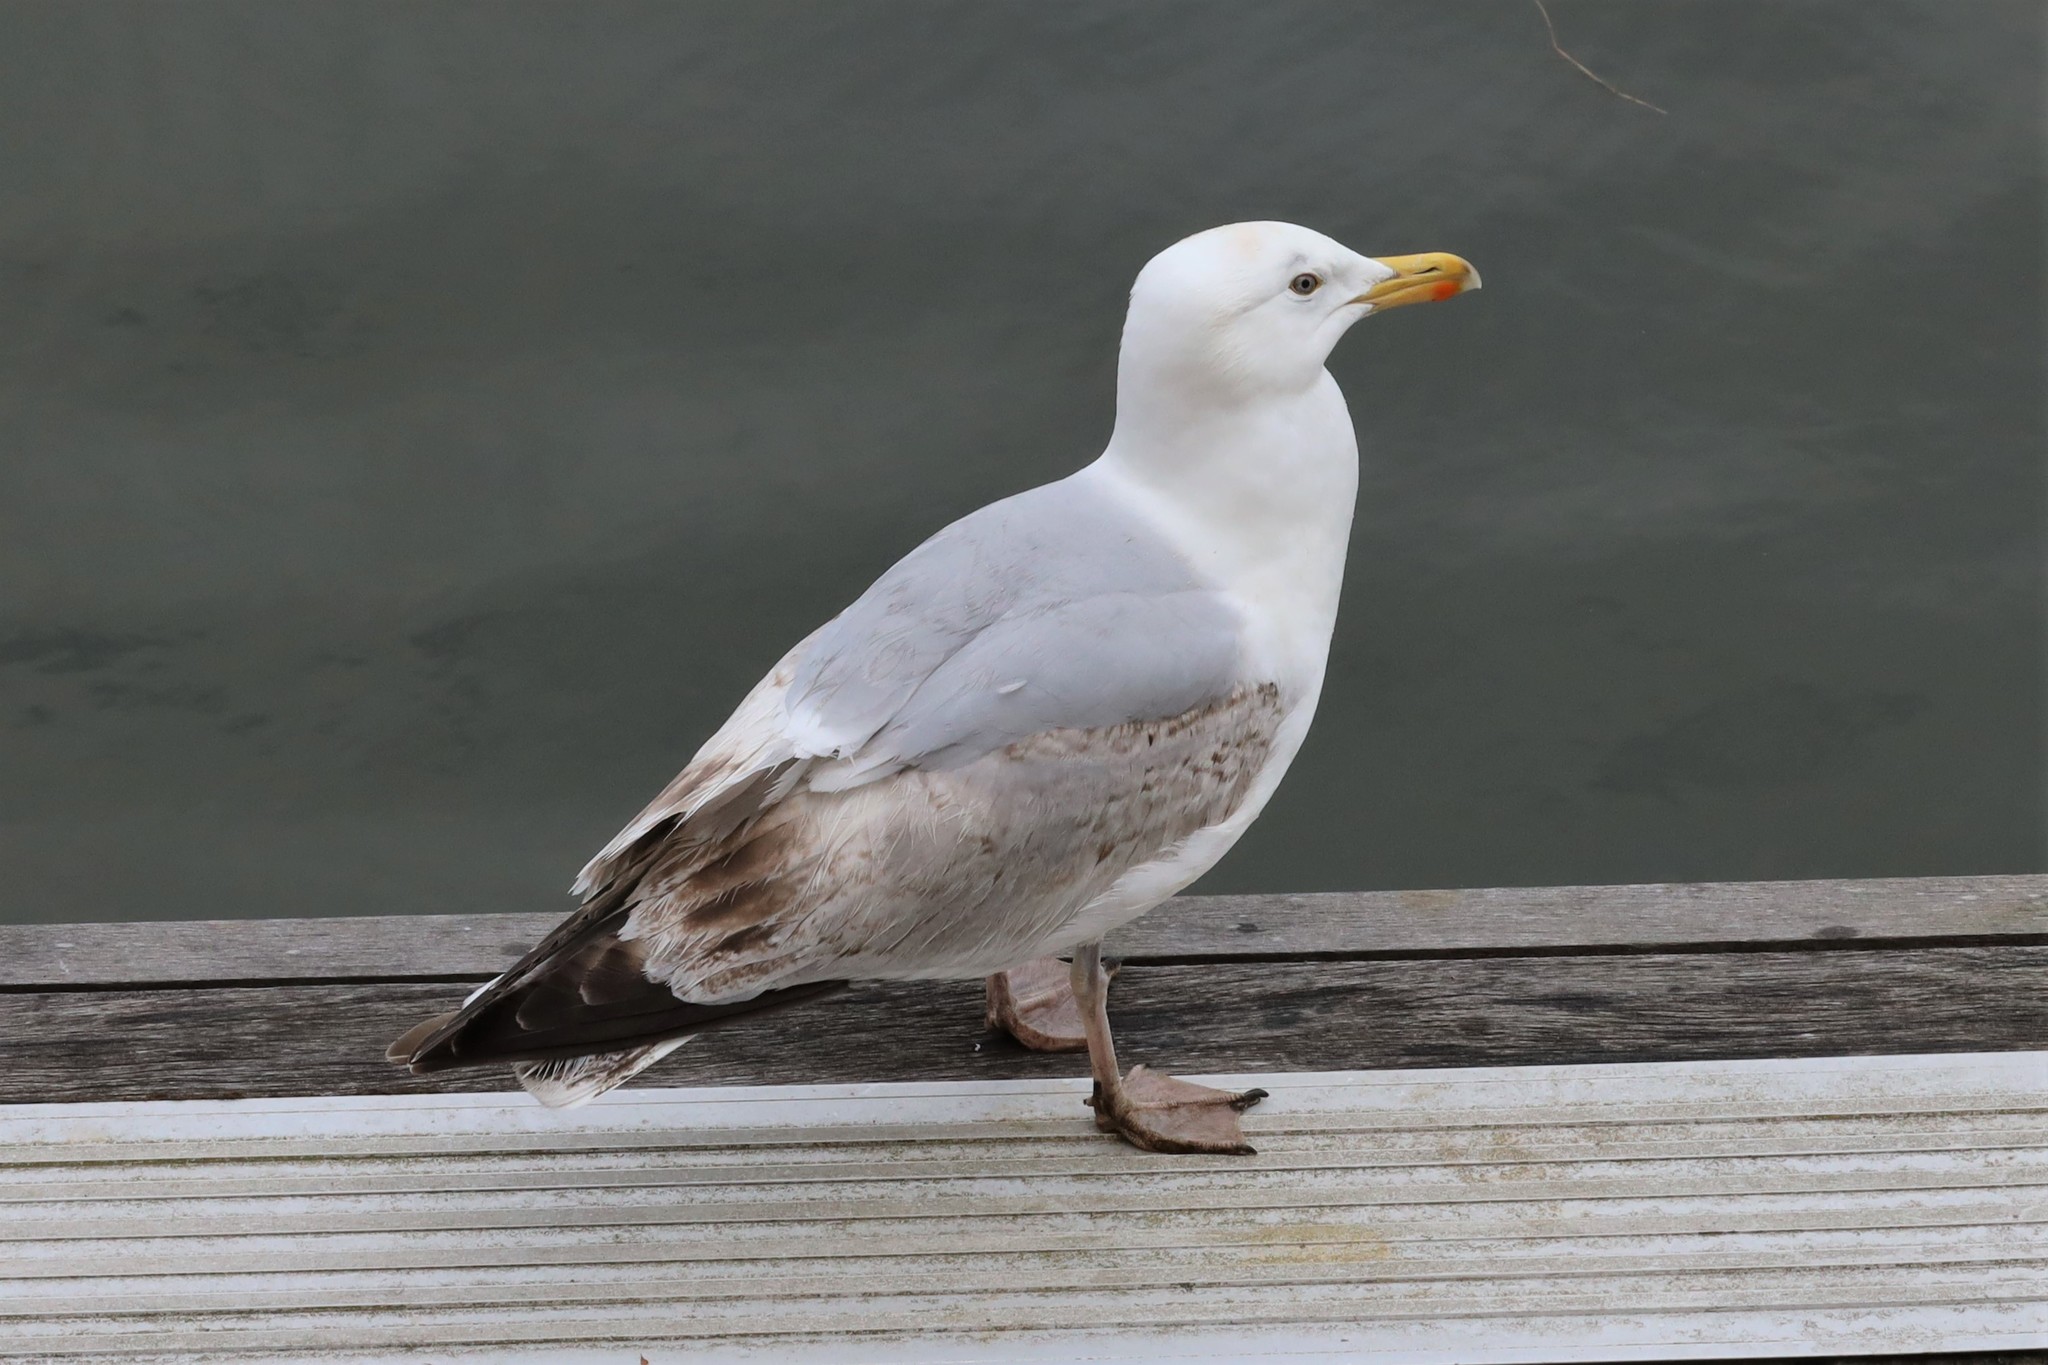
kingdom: Animalia
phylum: Chordata
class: Aves
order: Charadriiformes
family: Laridae
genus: Larus
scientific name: Larus argentatus
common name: Herring gull
